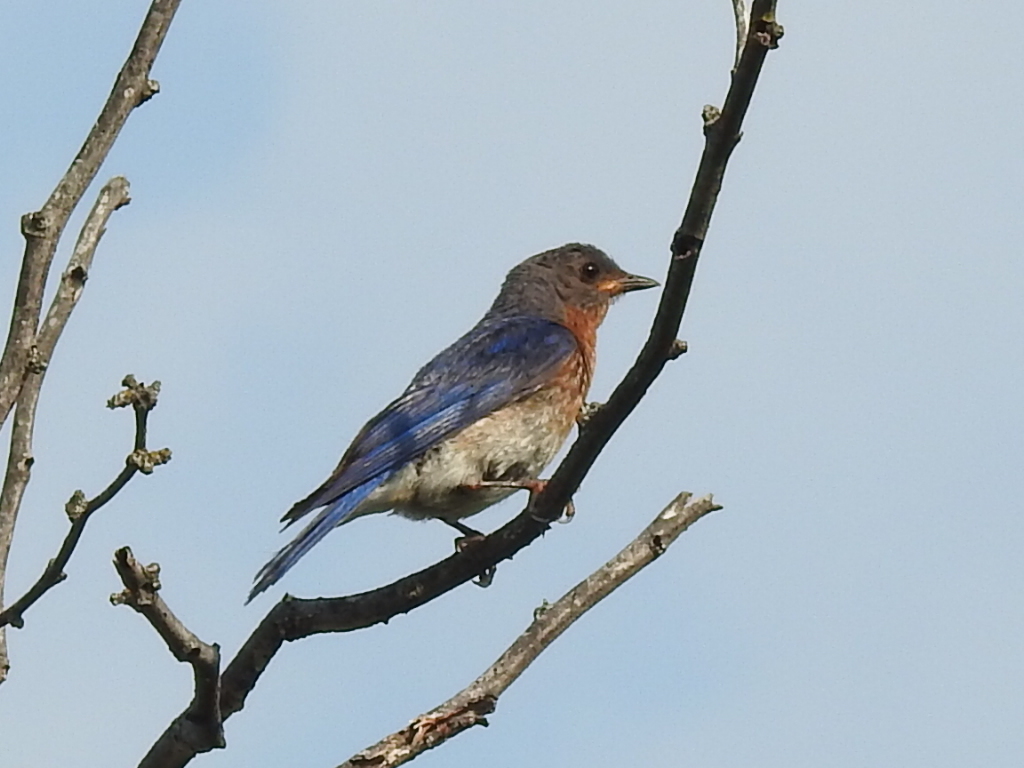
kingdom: Animalia
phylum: Chordata
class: Aves
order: Passeriformes
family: Turdidae
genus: Sialia
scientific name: Sialia sialis
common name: Eastern bluebird
